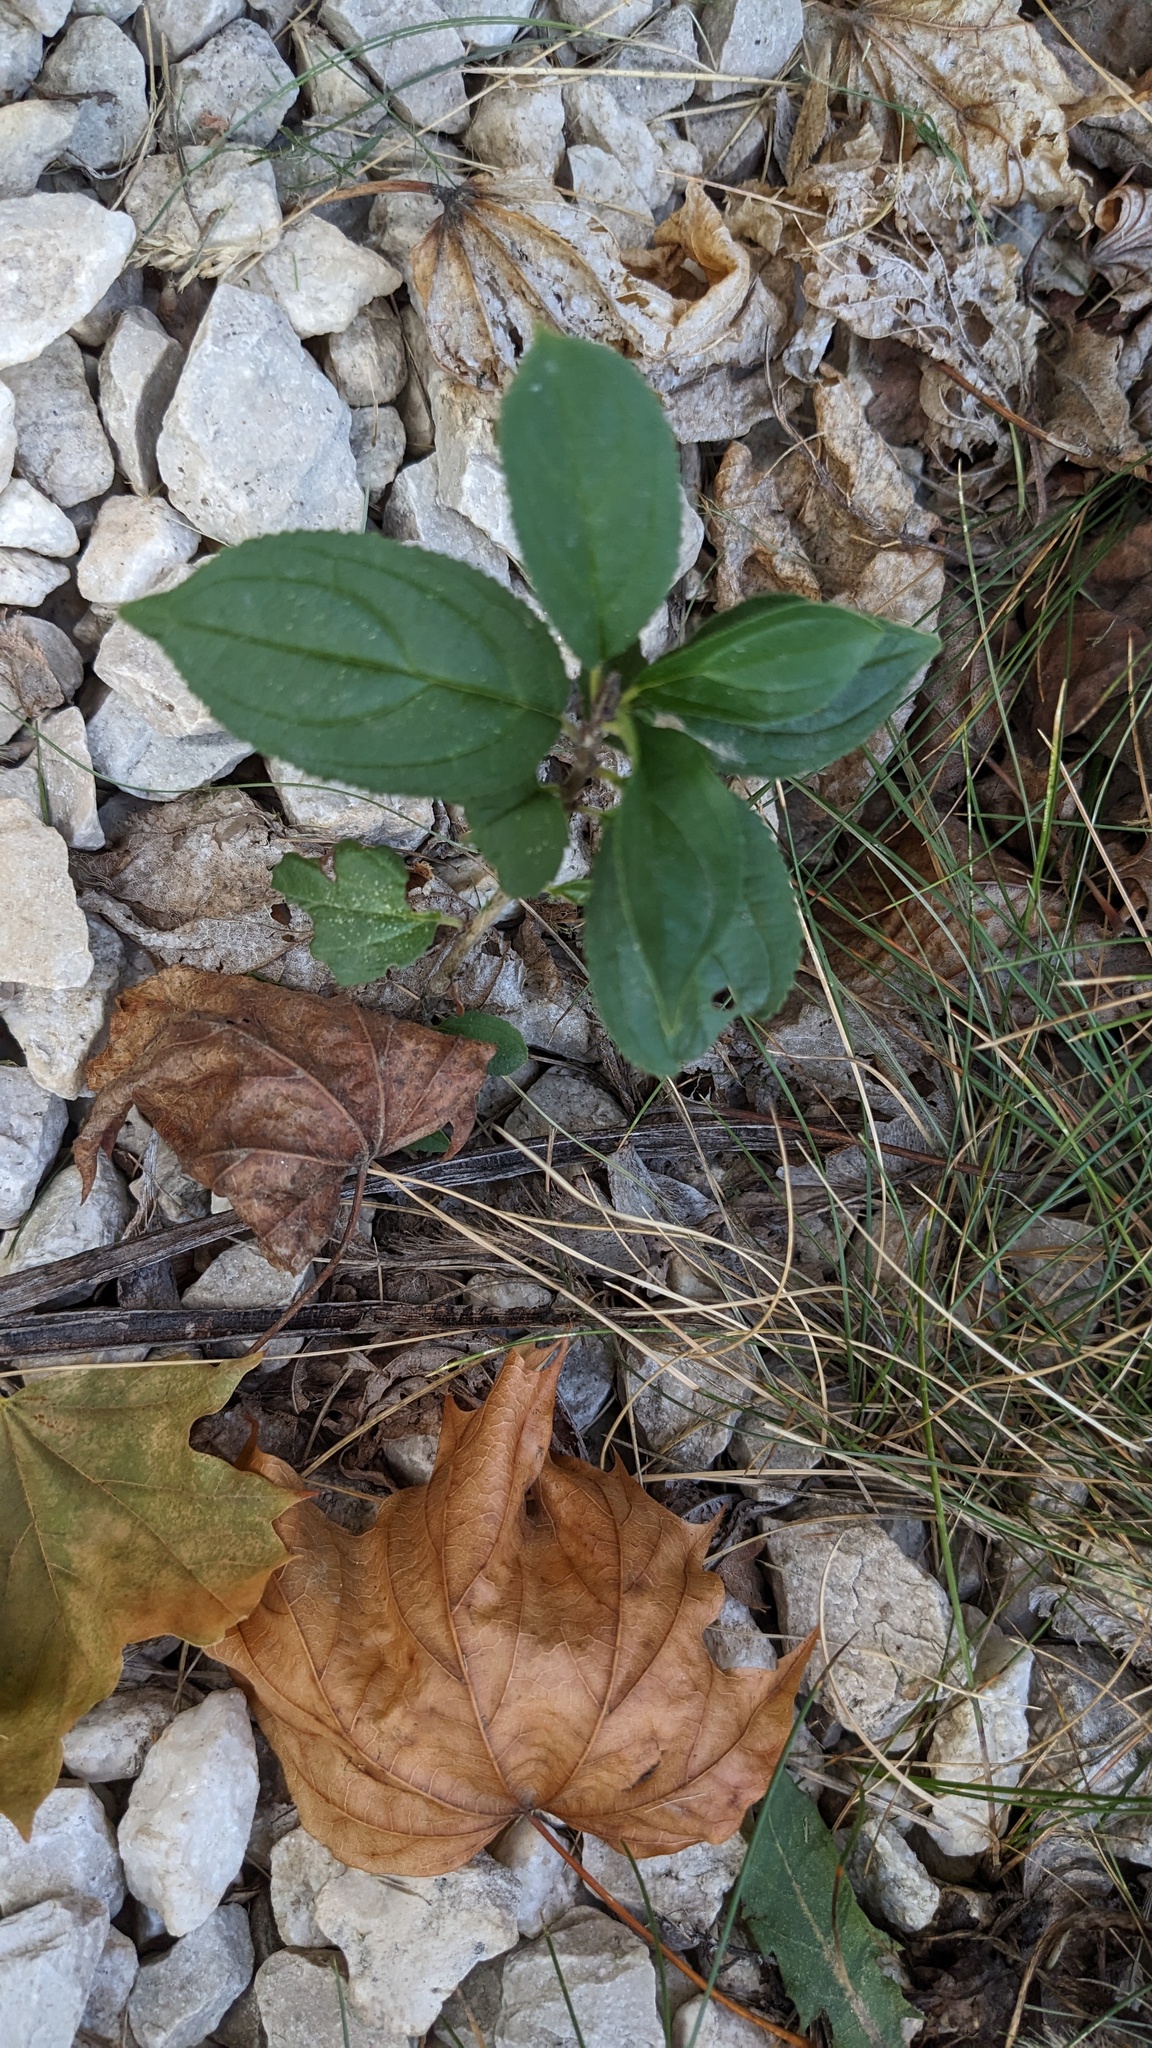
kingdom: Plantae
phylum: Tracheophyta
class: Magnoliopsida
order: Rosales
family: Rhamnaceae
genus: Rhamnus
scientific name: Rhamnus cathartica
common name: Common buckthorn
